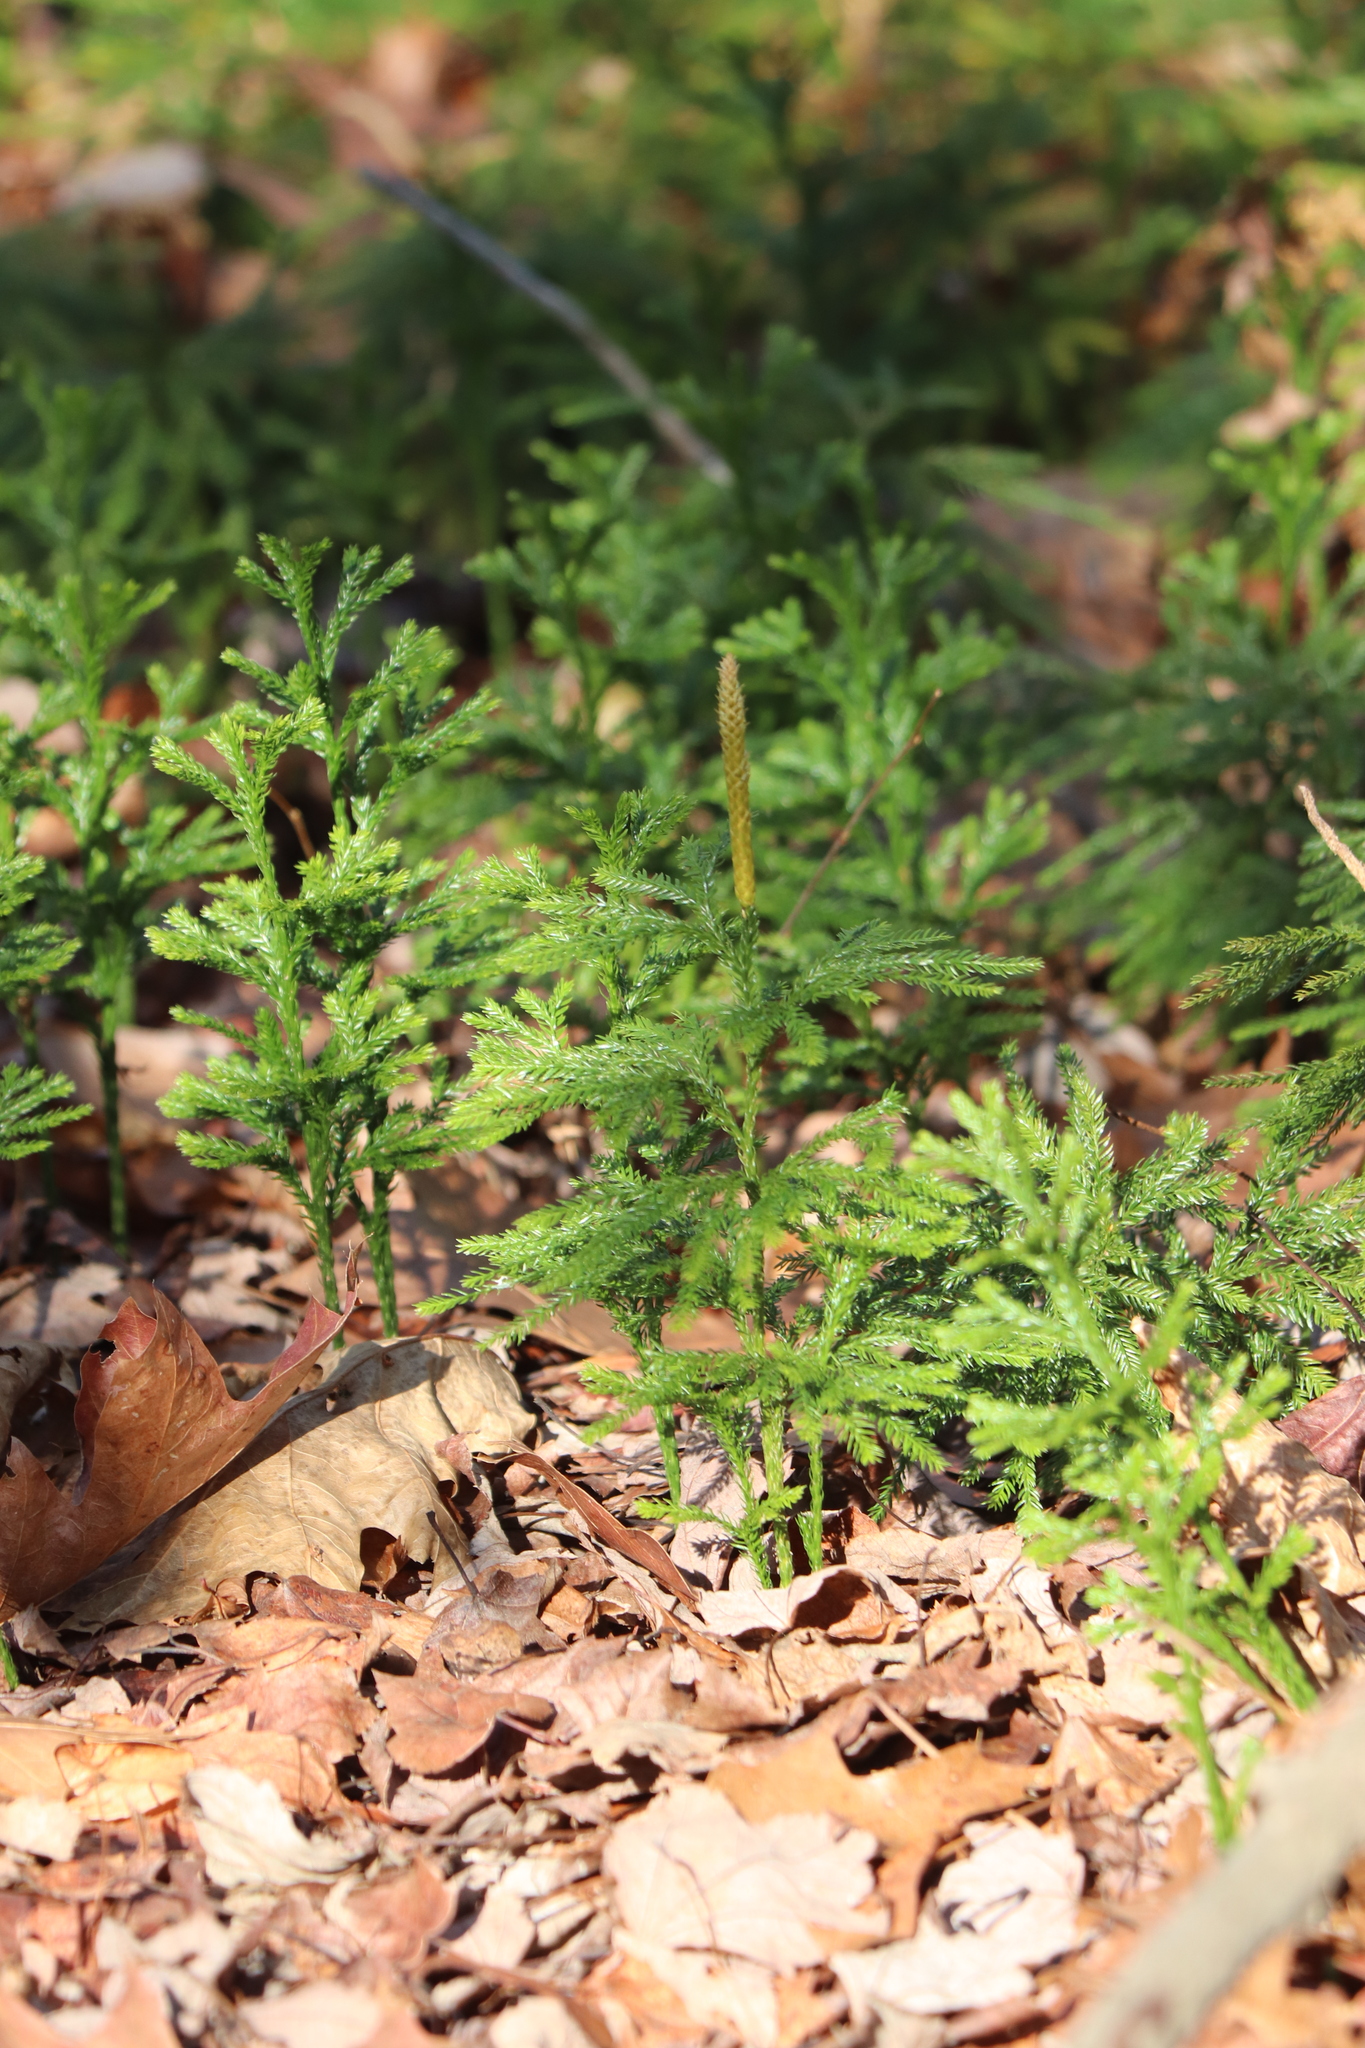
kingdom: Plantae
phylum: Tracheophyta
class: Lycopodiopsida
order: Lycopodiales
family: Lycopodiaceae
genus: Dendrolycopodium
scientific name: Dendrolycopodium obscurum
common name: Common ground-pine
